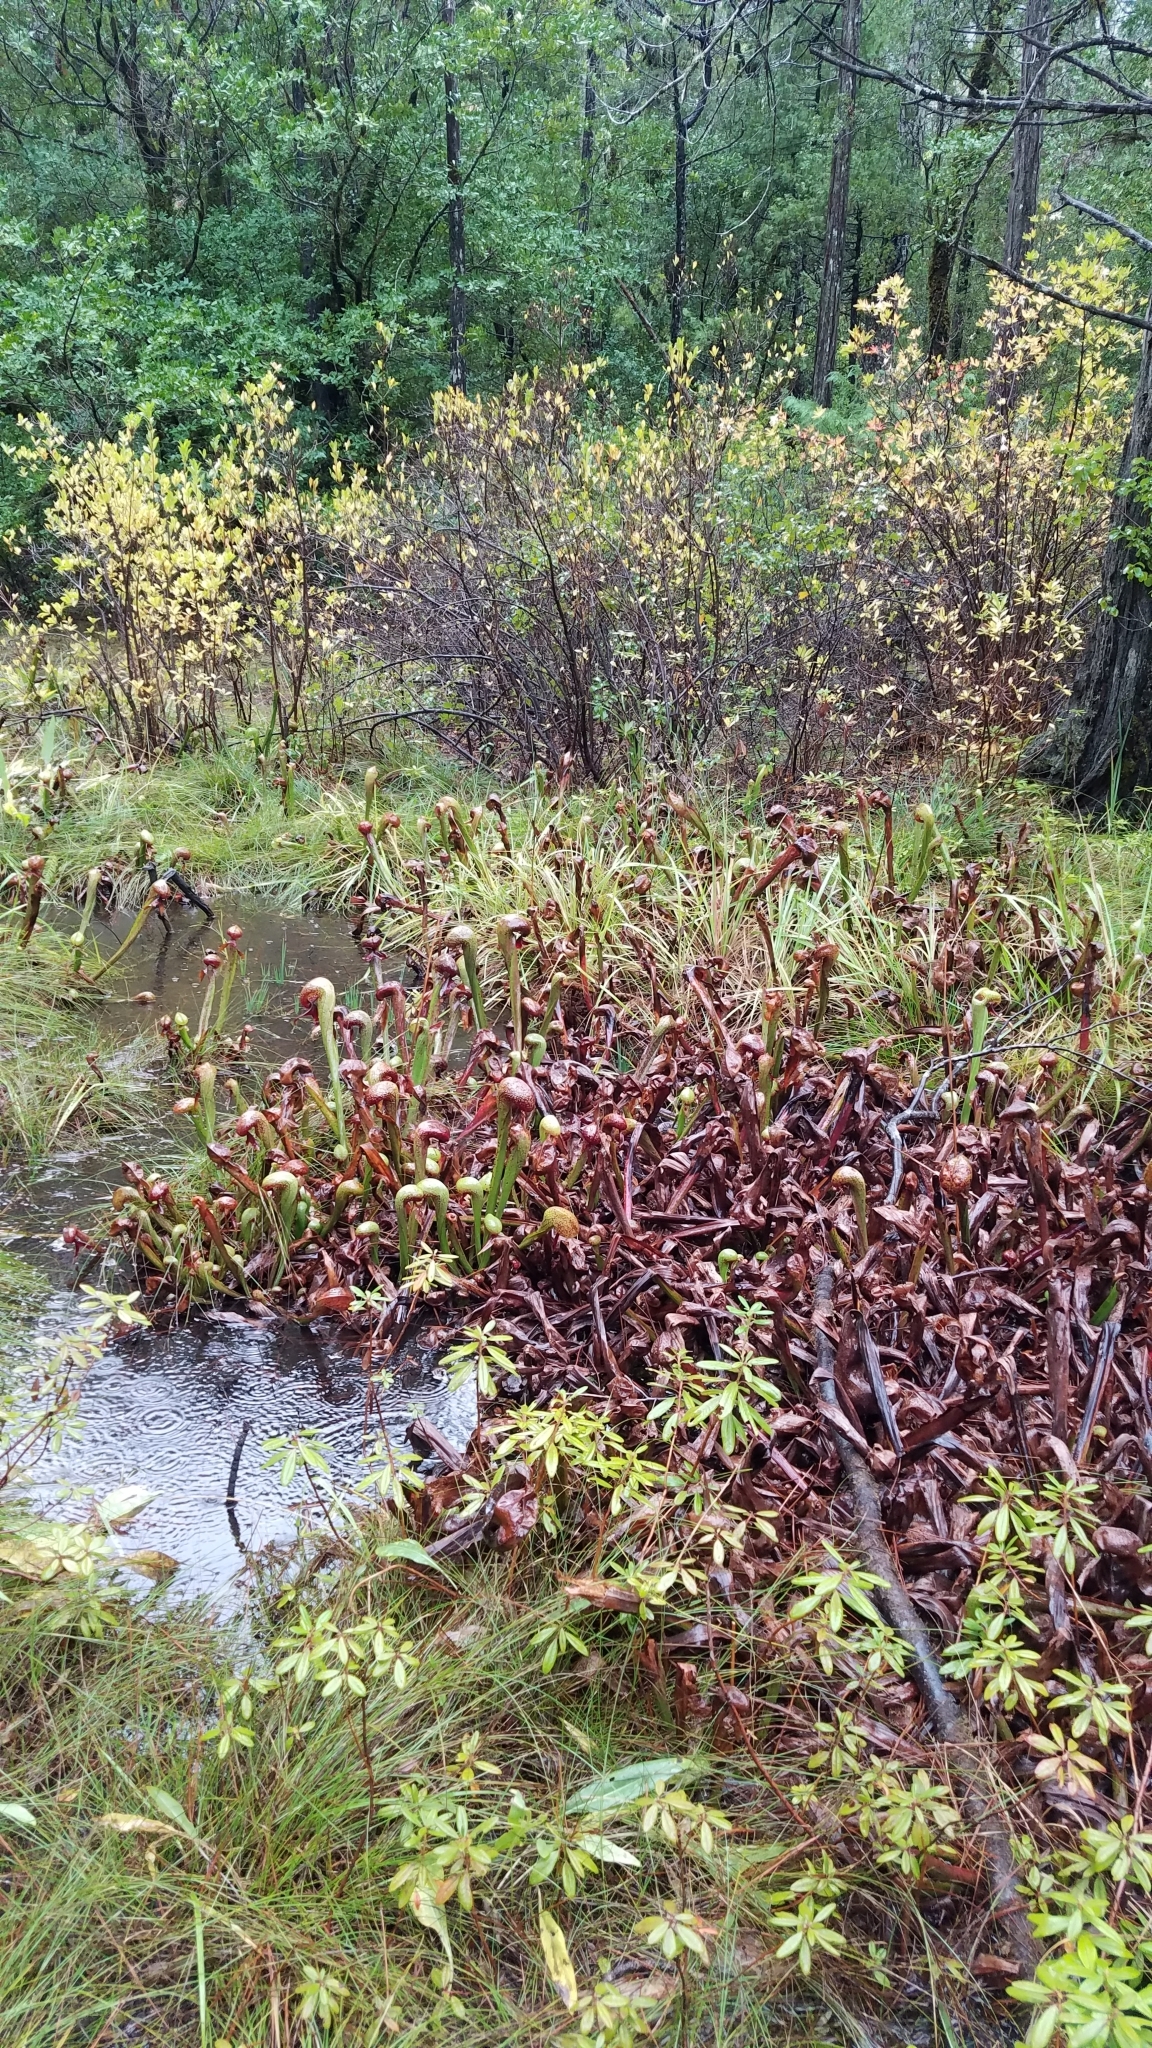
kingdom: Plantae
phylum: Tracheophyta
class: Magnoliopsida
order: Ericales
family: Sarraceniaceae
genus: Darlingtonia
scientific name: Darlingtonia californica
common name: California pitcher plant
